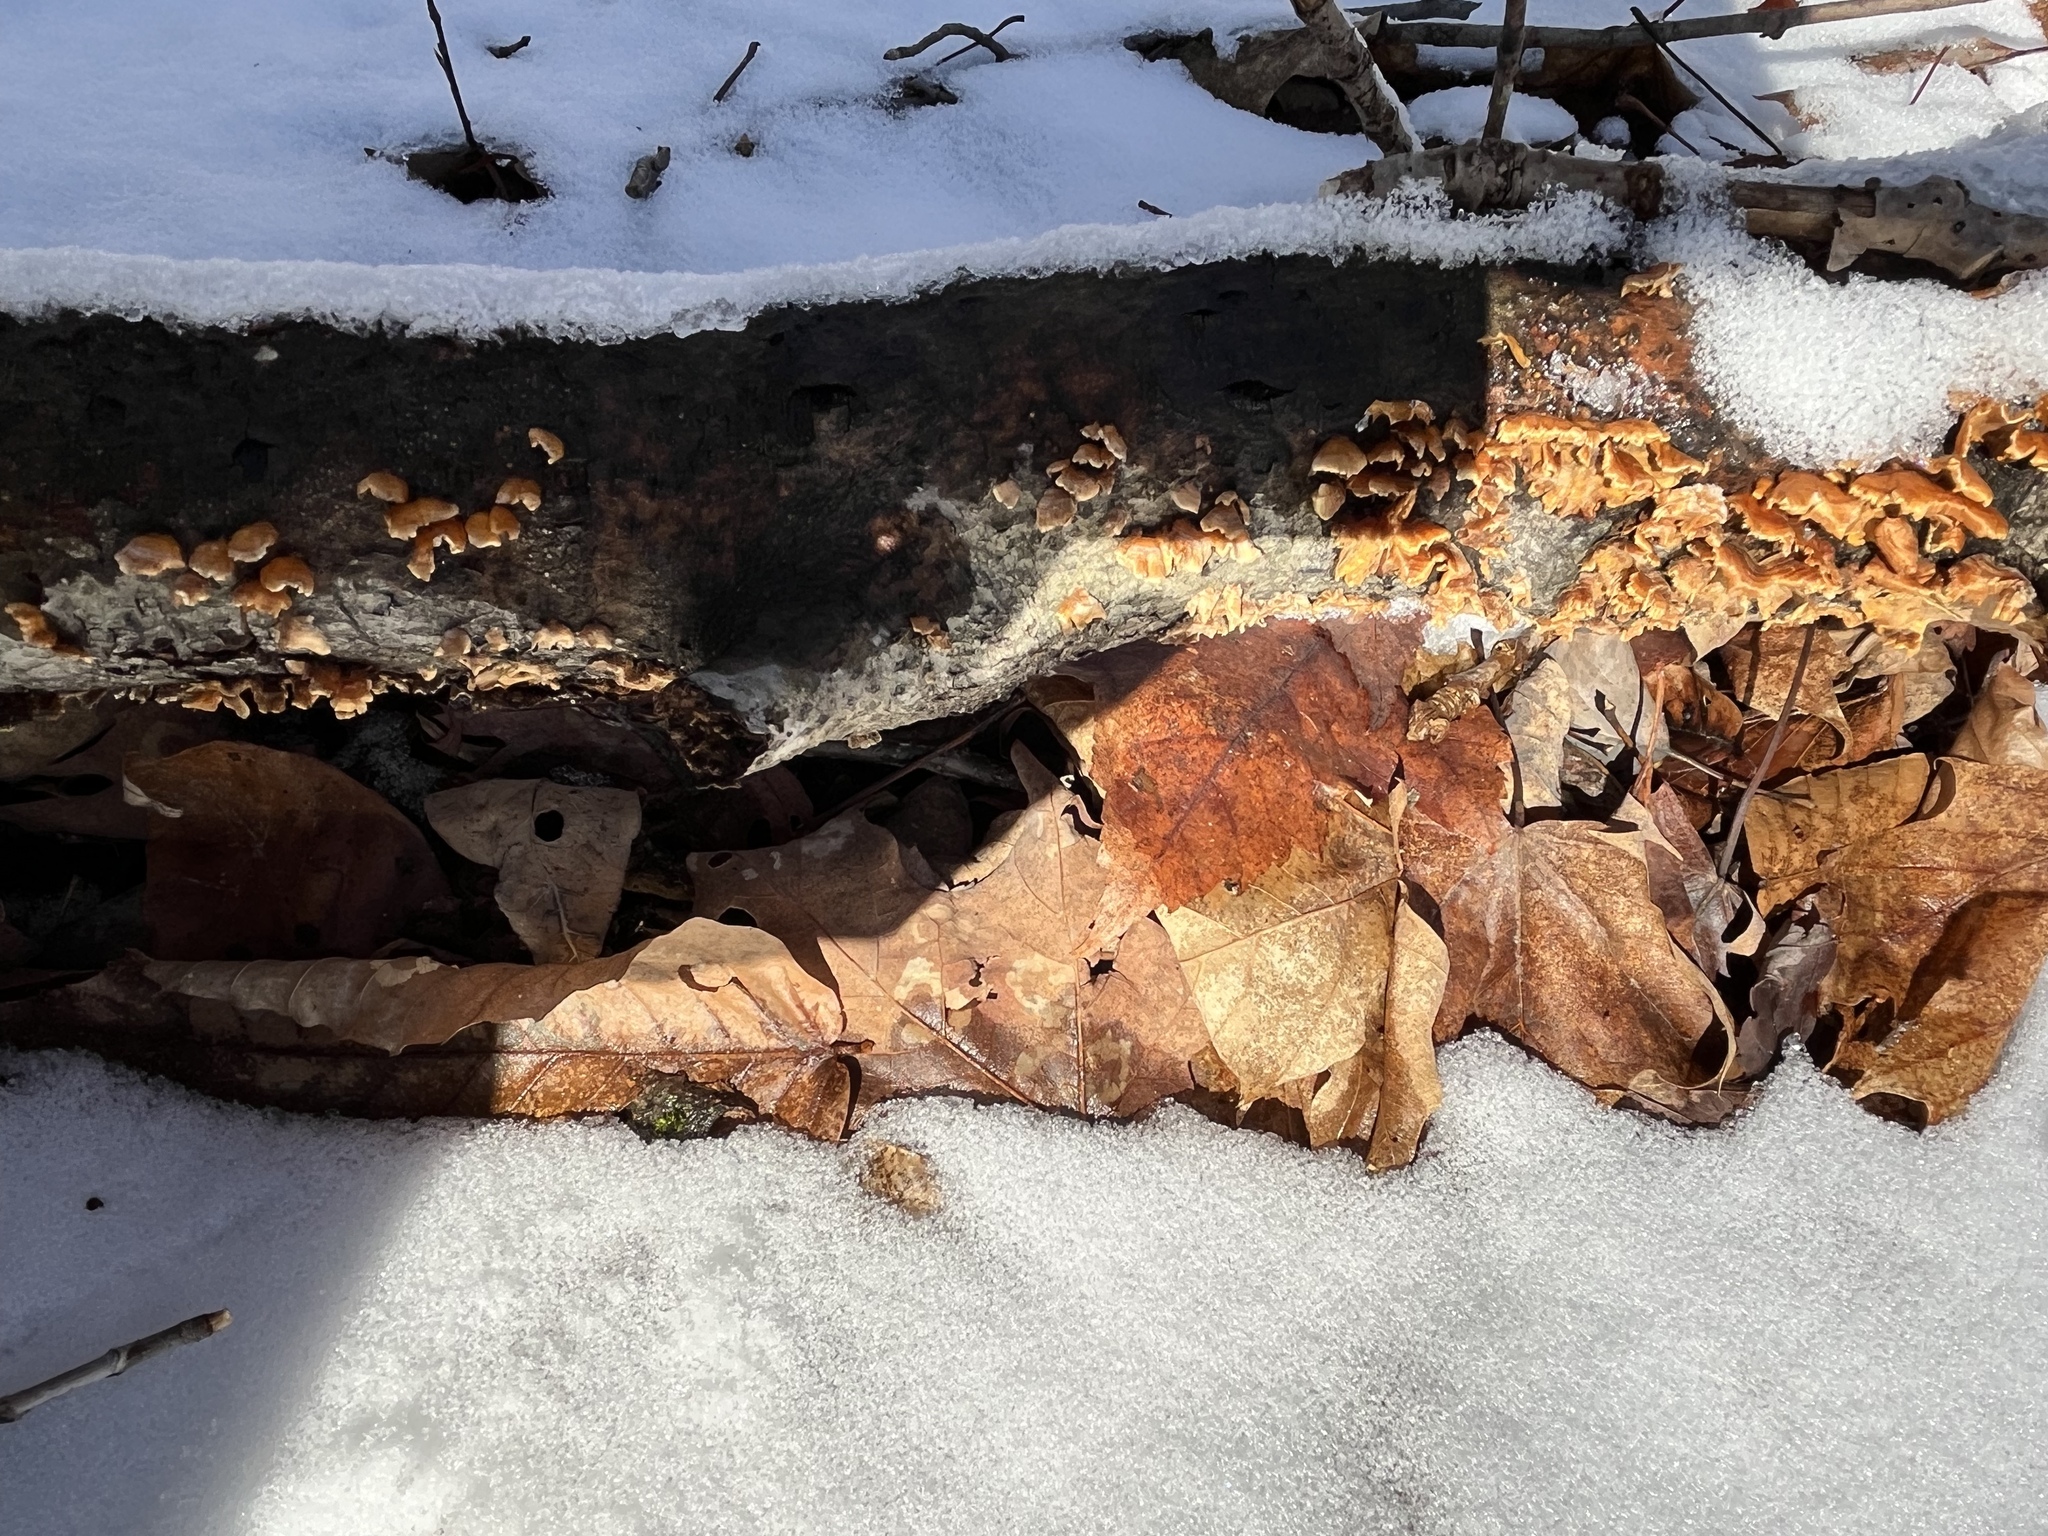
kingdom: Fungi
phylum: Basidiomycota
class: Agaricomycetes
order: Russulales
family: Stereaceae
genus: Stereum
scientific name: Stereum complicatum
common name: Crowded parchment
